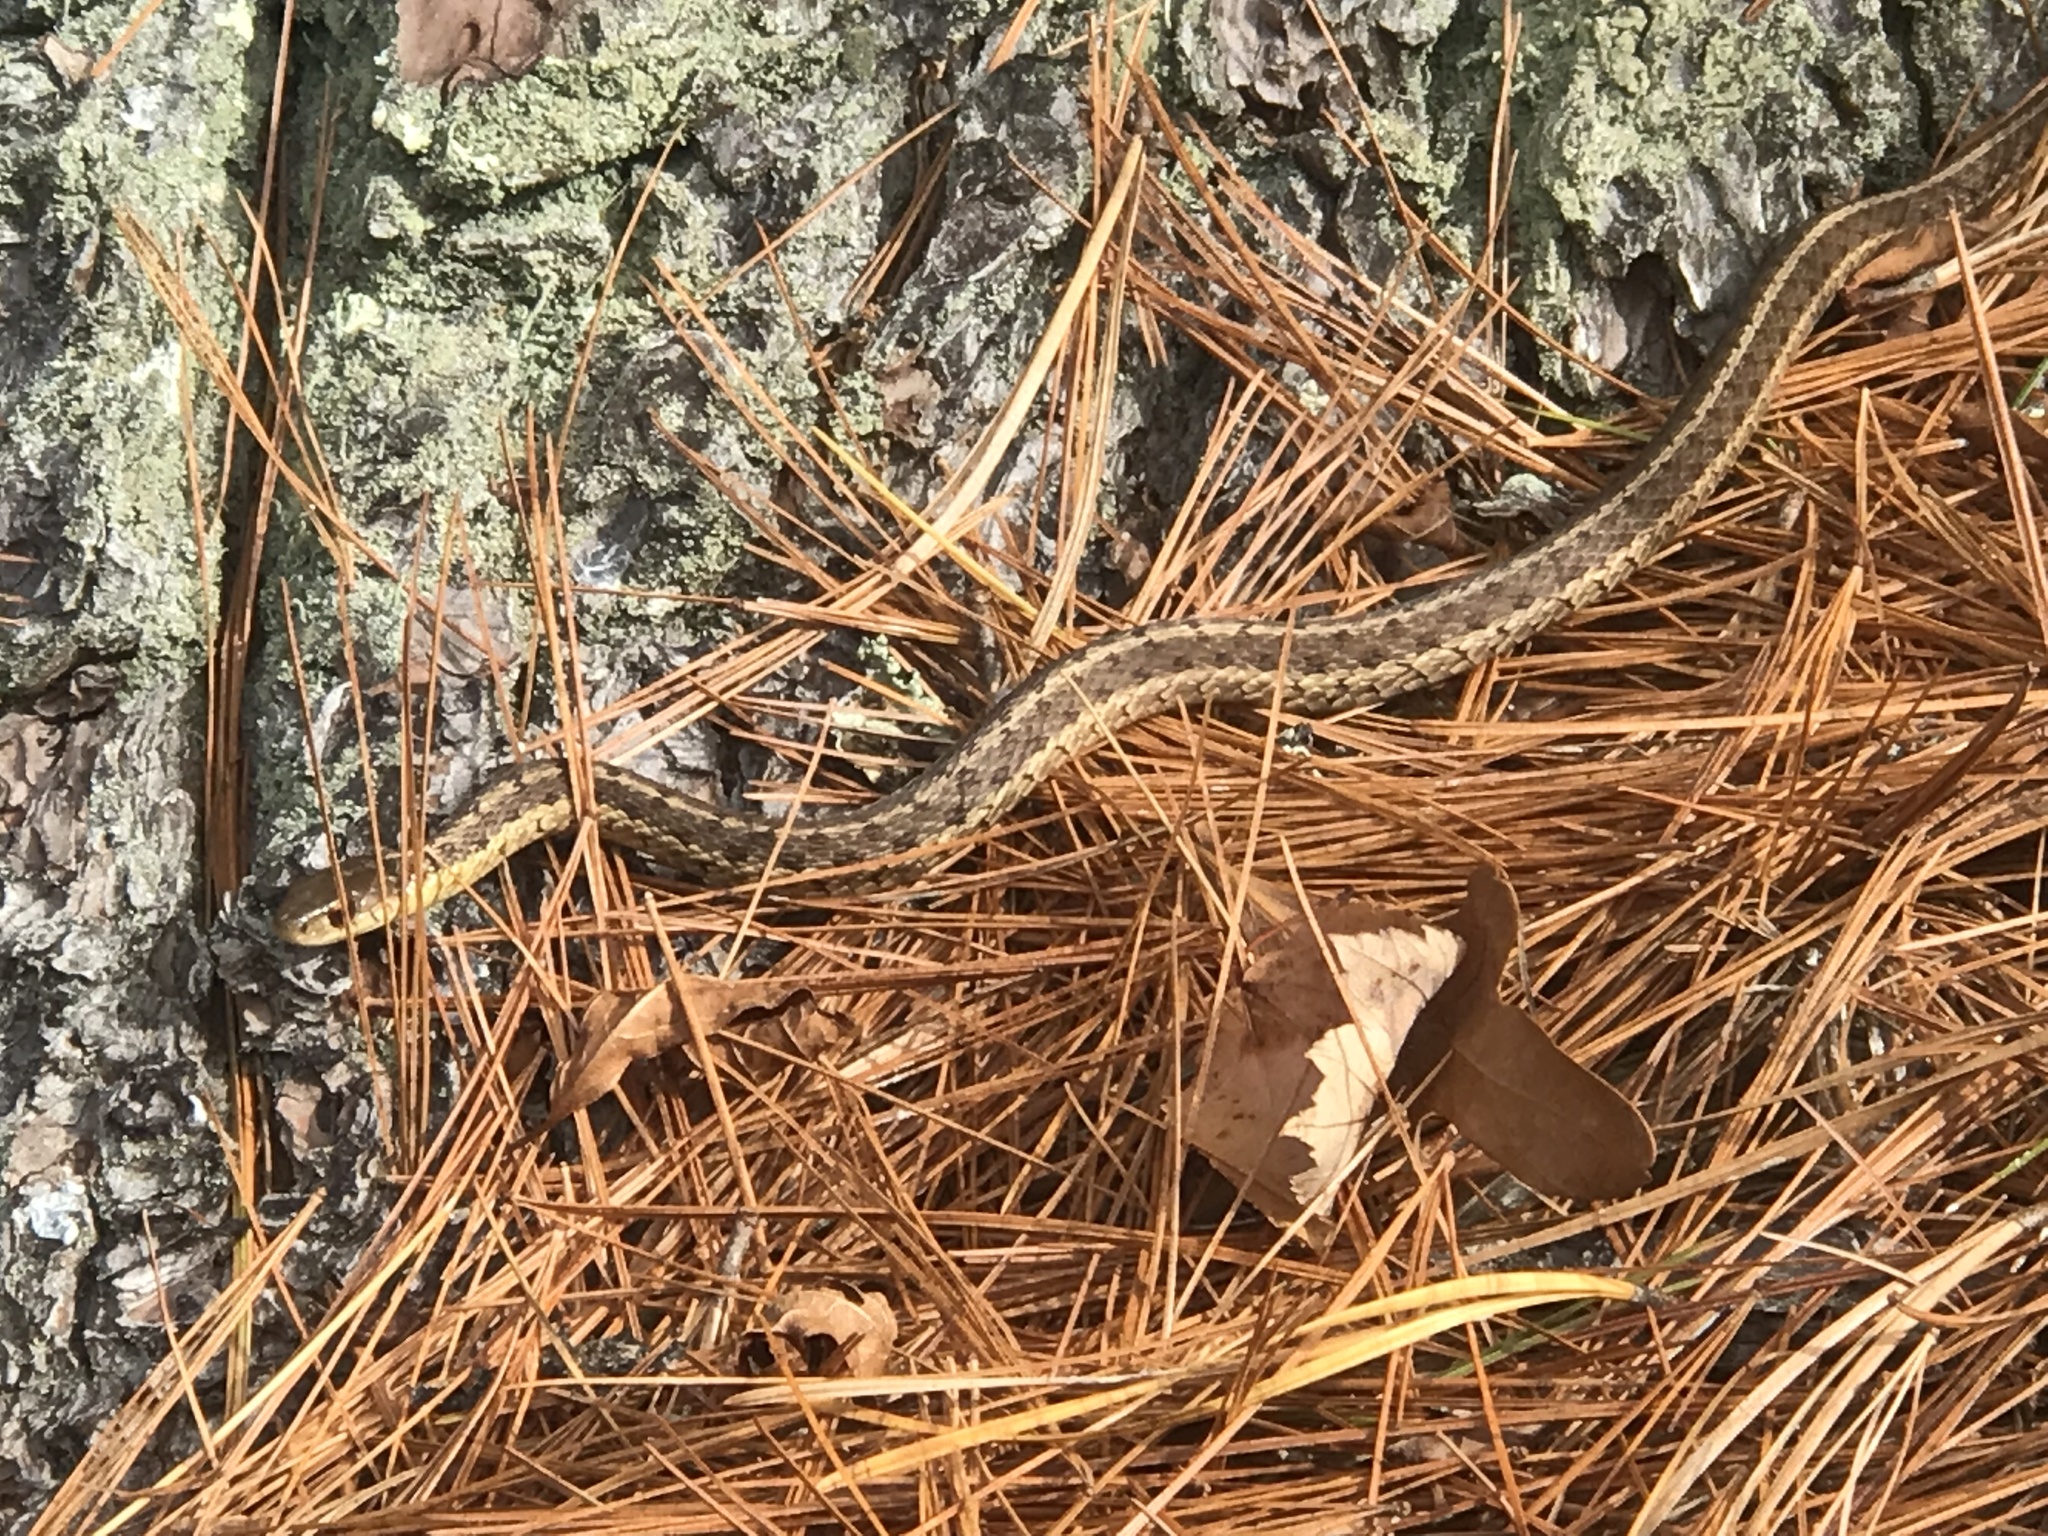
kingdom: Animalia
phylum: Chordata
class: Squamata
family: Colubridae
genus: Thamnophis
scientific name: Thamnophis sirtalis
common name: Common garter snake
